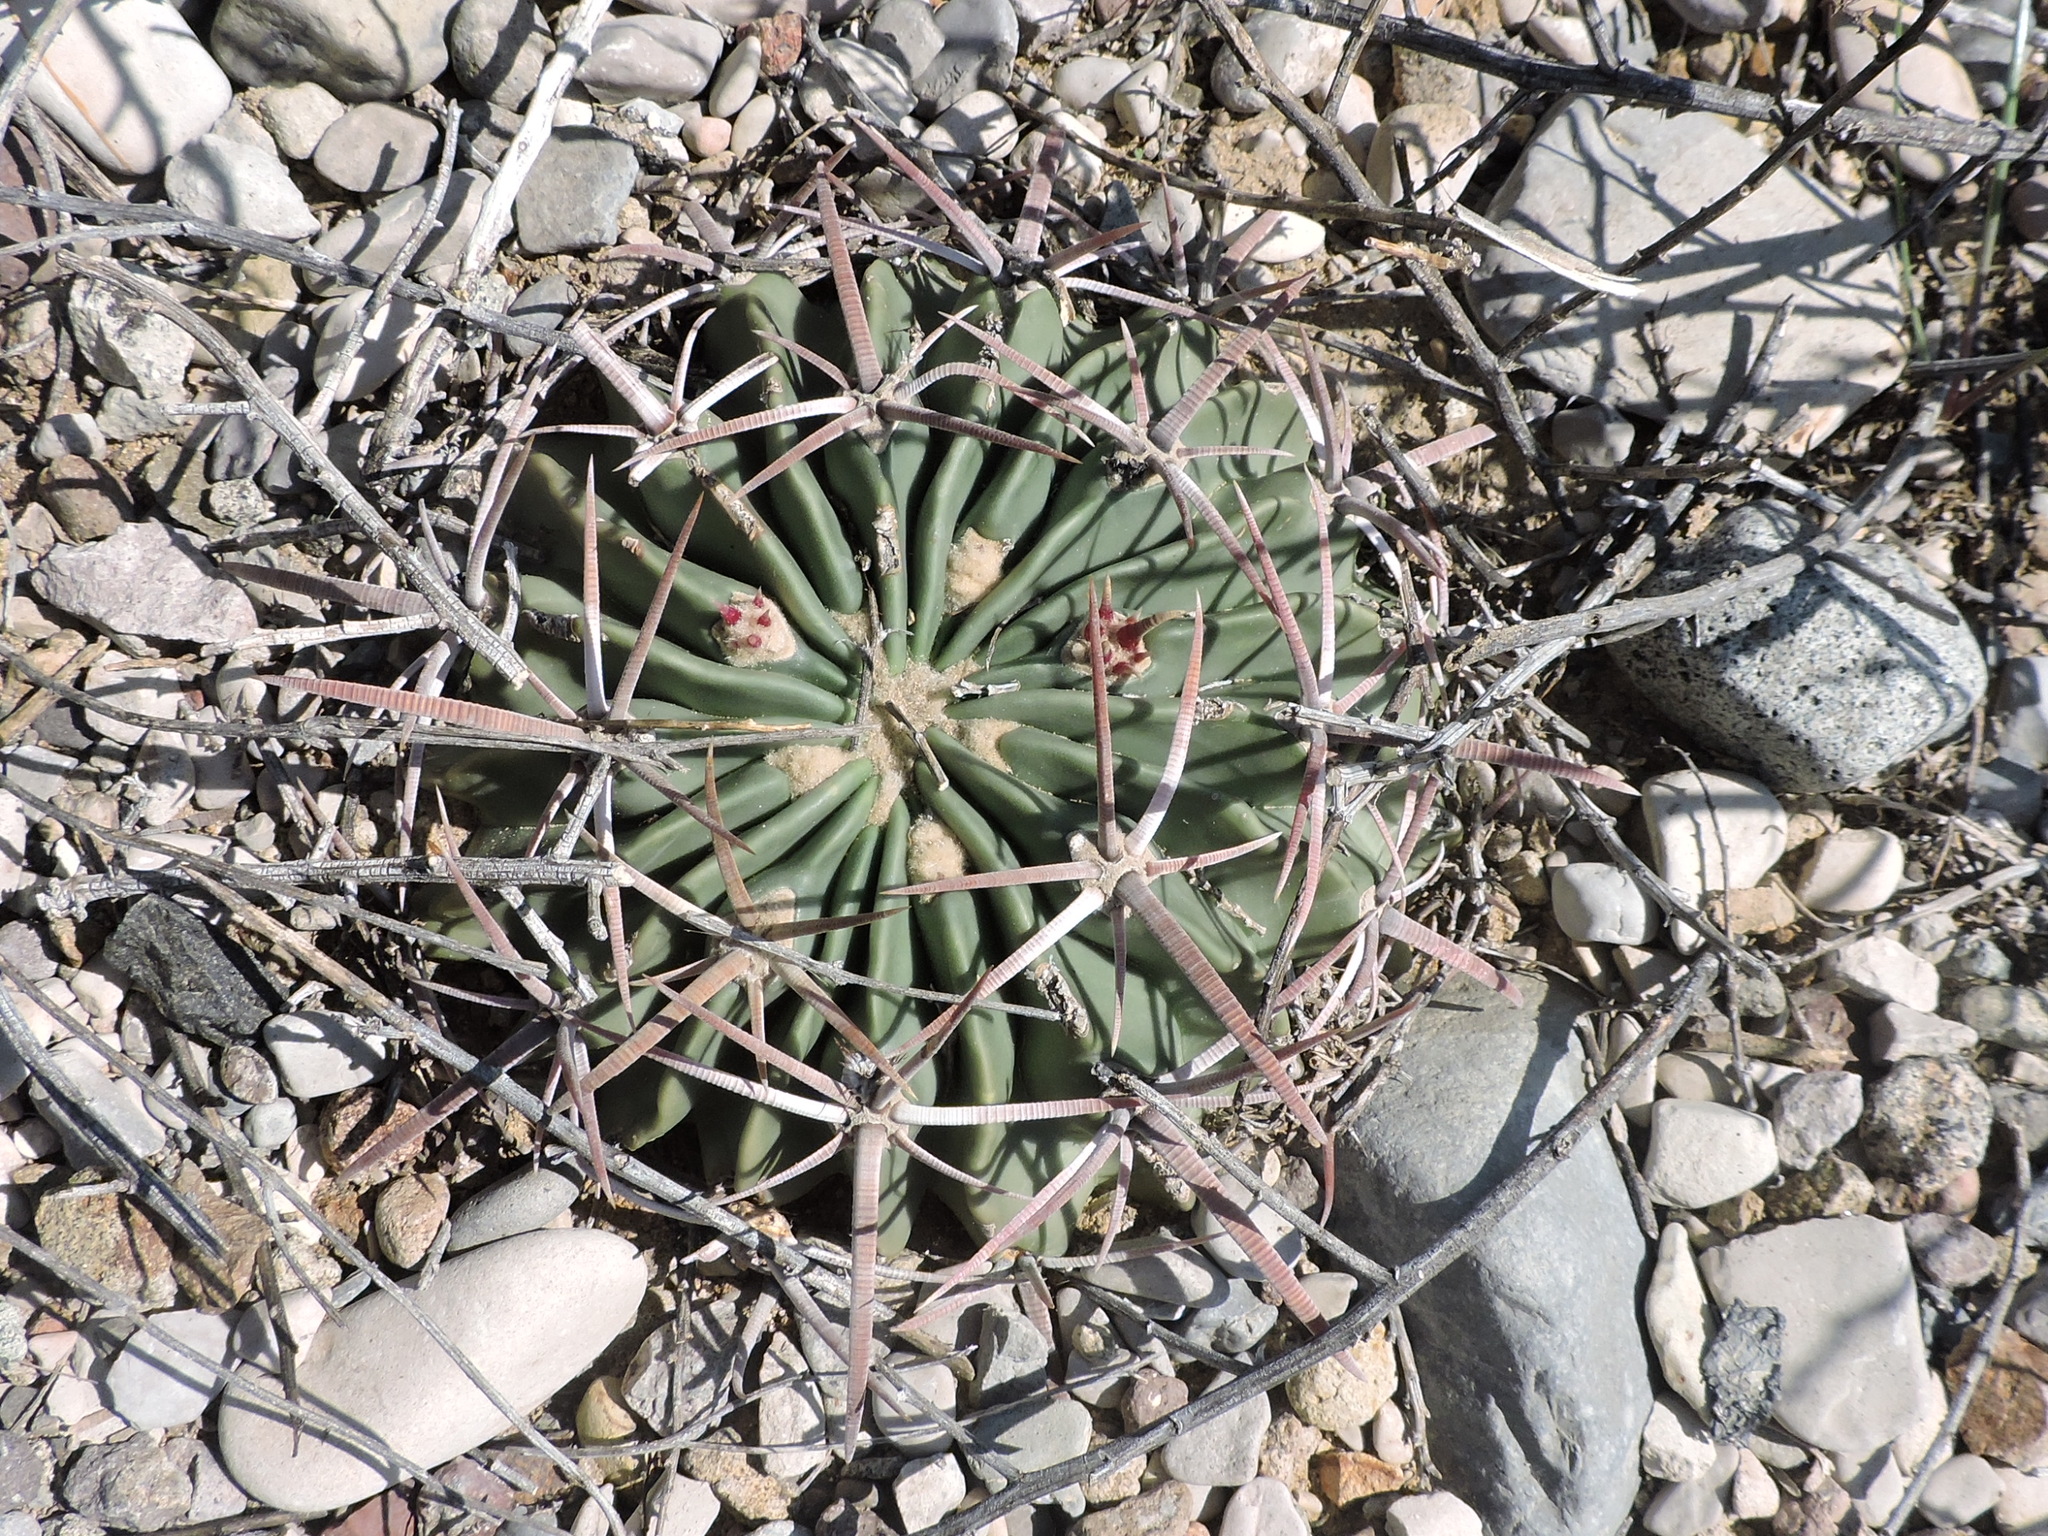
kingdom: Plantae
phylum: Tracheophyta
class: Magnoliopsida
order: Caryophyllales
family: Cactaceae
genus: Echinocactus
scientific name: Echinocactus texensis
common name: Devil's pincushion
